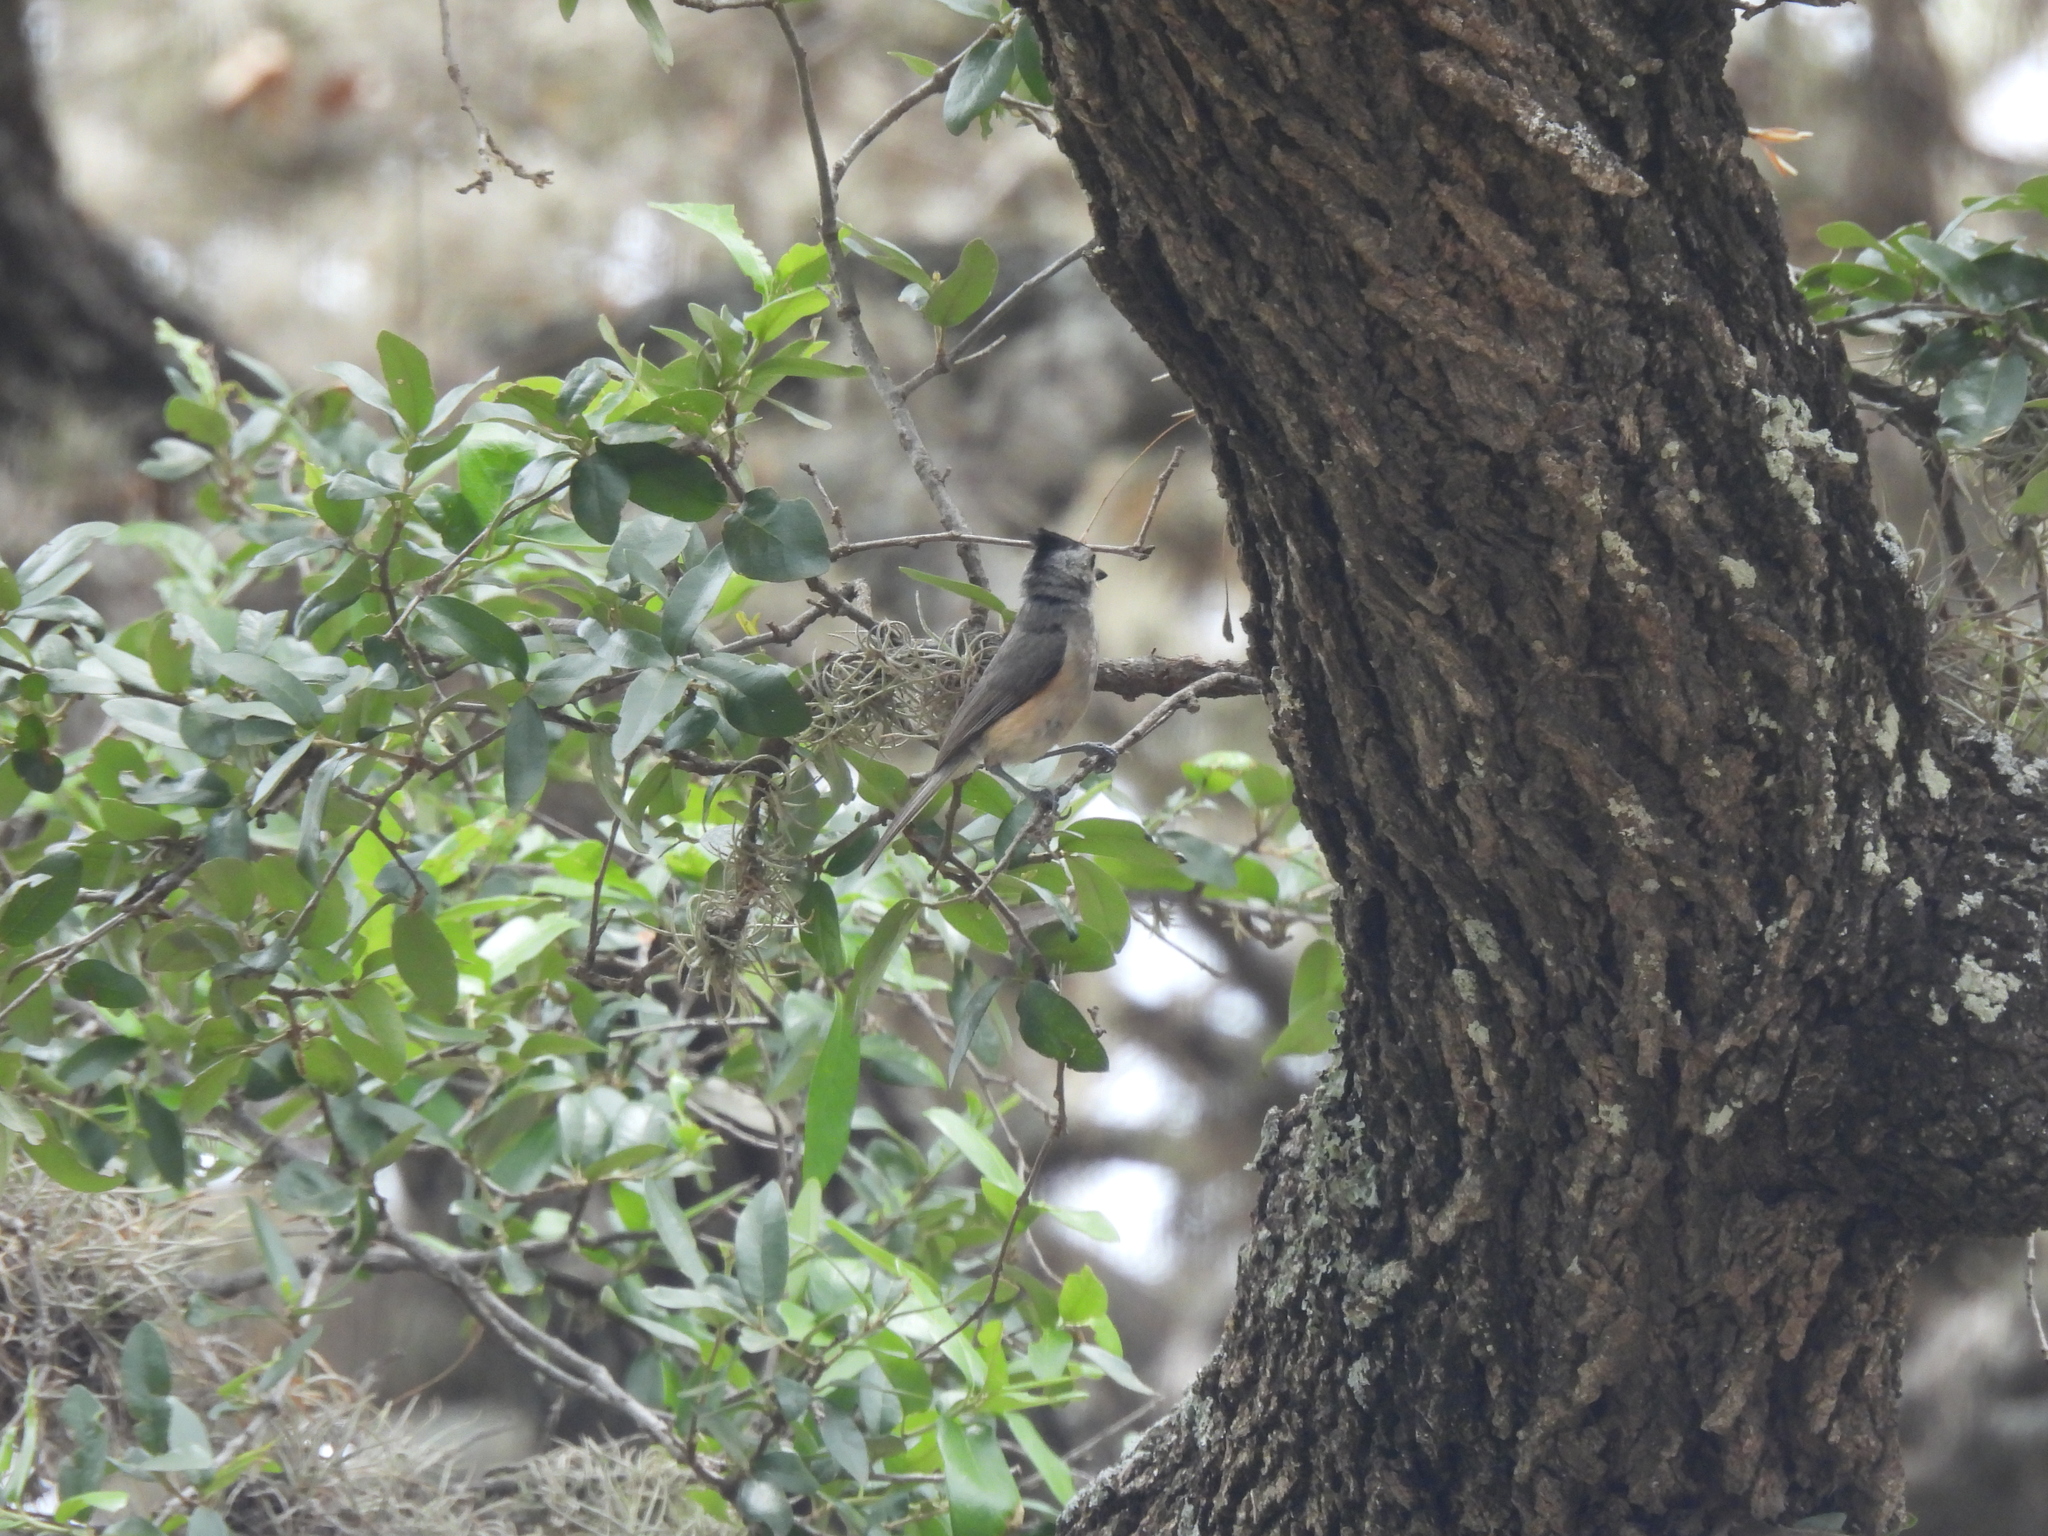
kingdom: Animalia
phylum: Chordata
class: Aves
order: Passeriformes
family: Paridae
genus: Baeolophus
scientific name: Baeolophus atricristatus
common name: Black-crested titmouse
